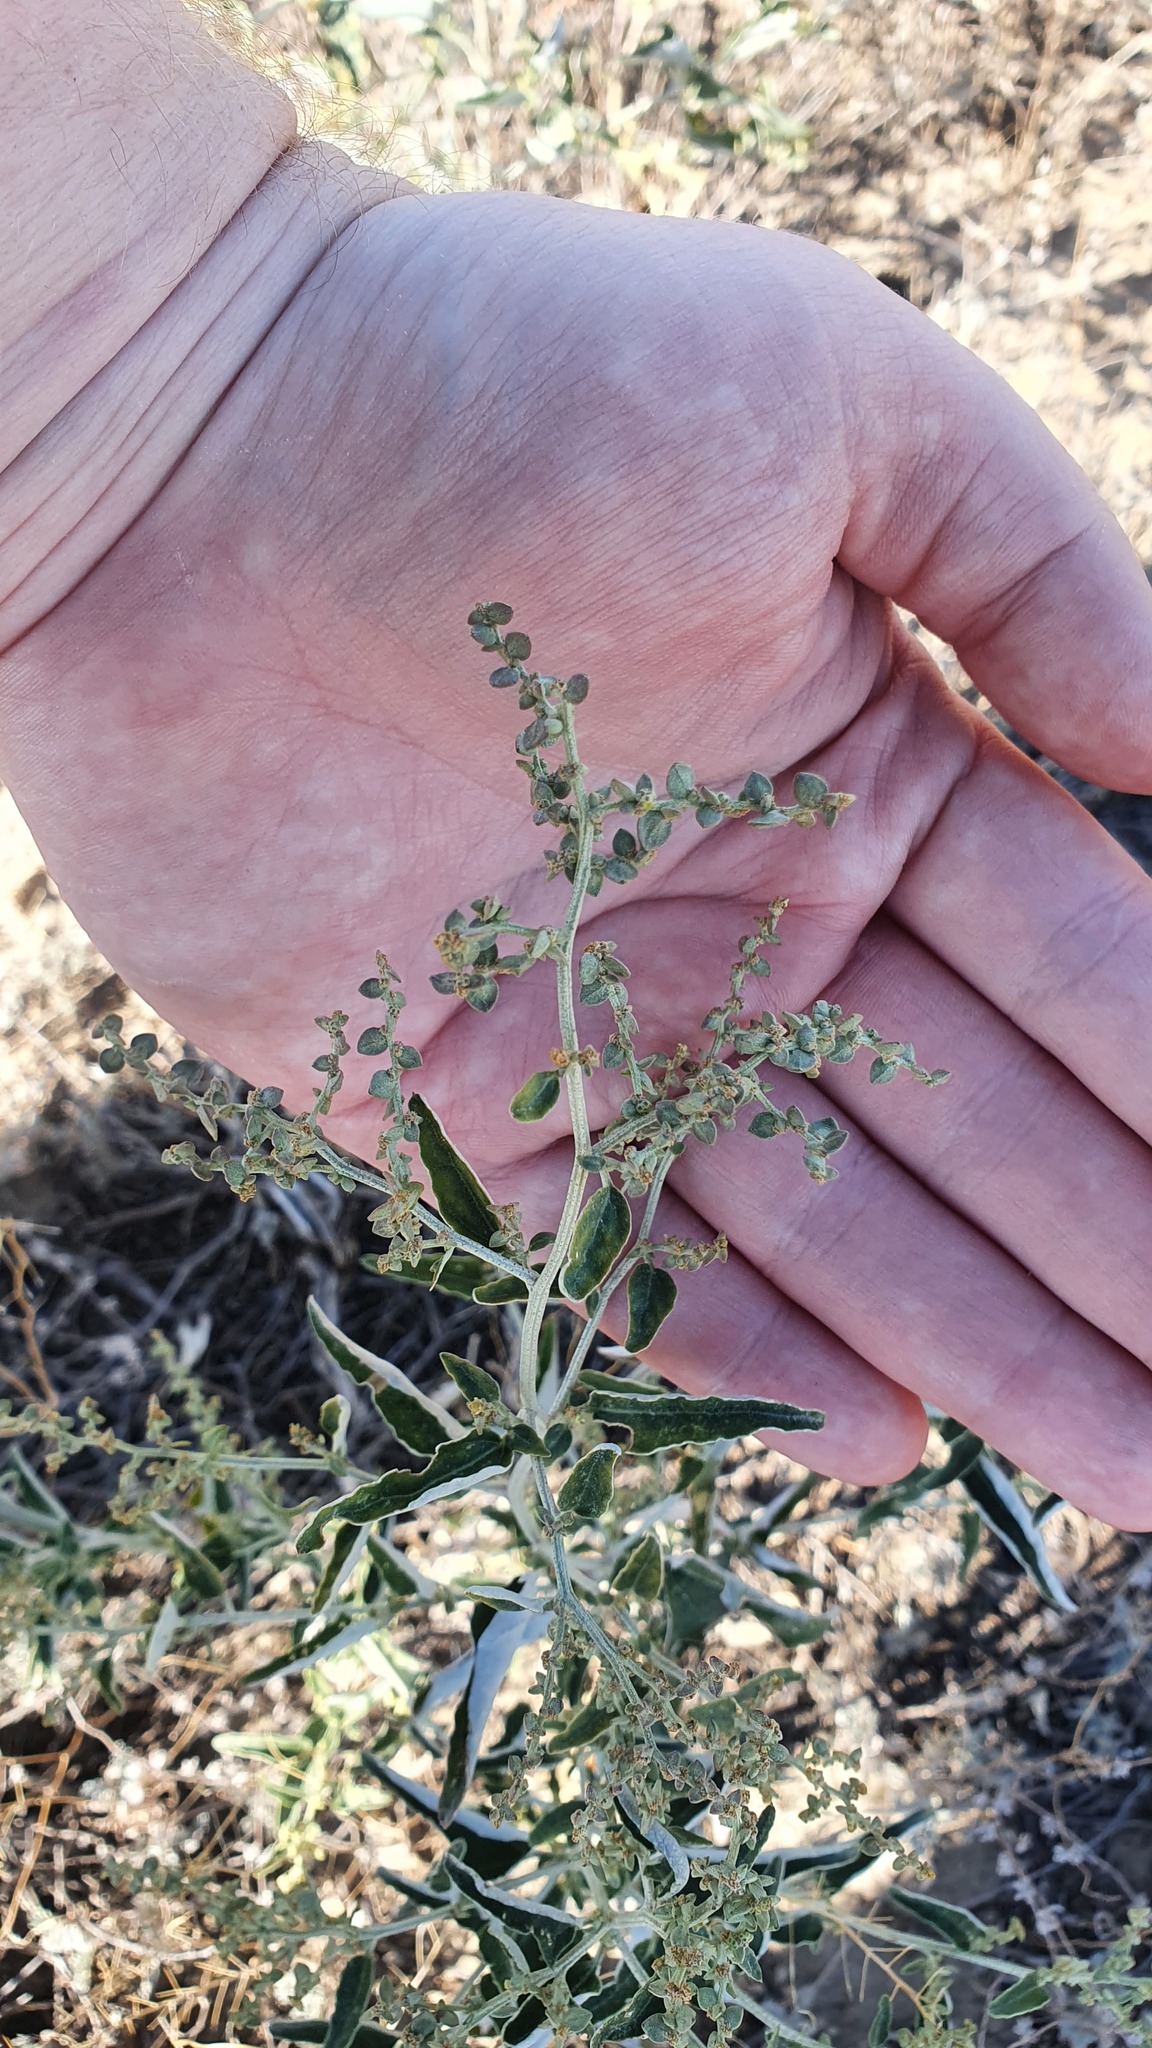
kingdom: Plantae
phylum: Tracheophyta
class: Magnoliopsida
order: Caryophyllales
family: Amaranthaceae
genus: Atriplex
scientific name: Atriplex aucheri
